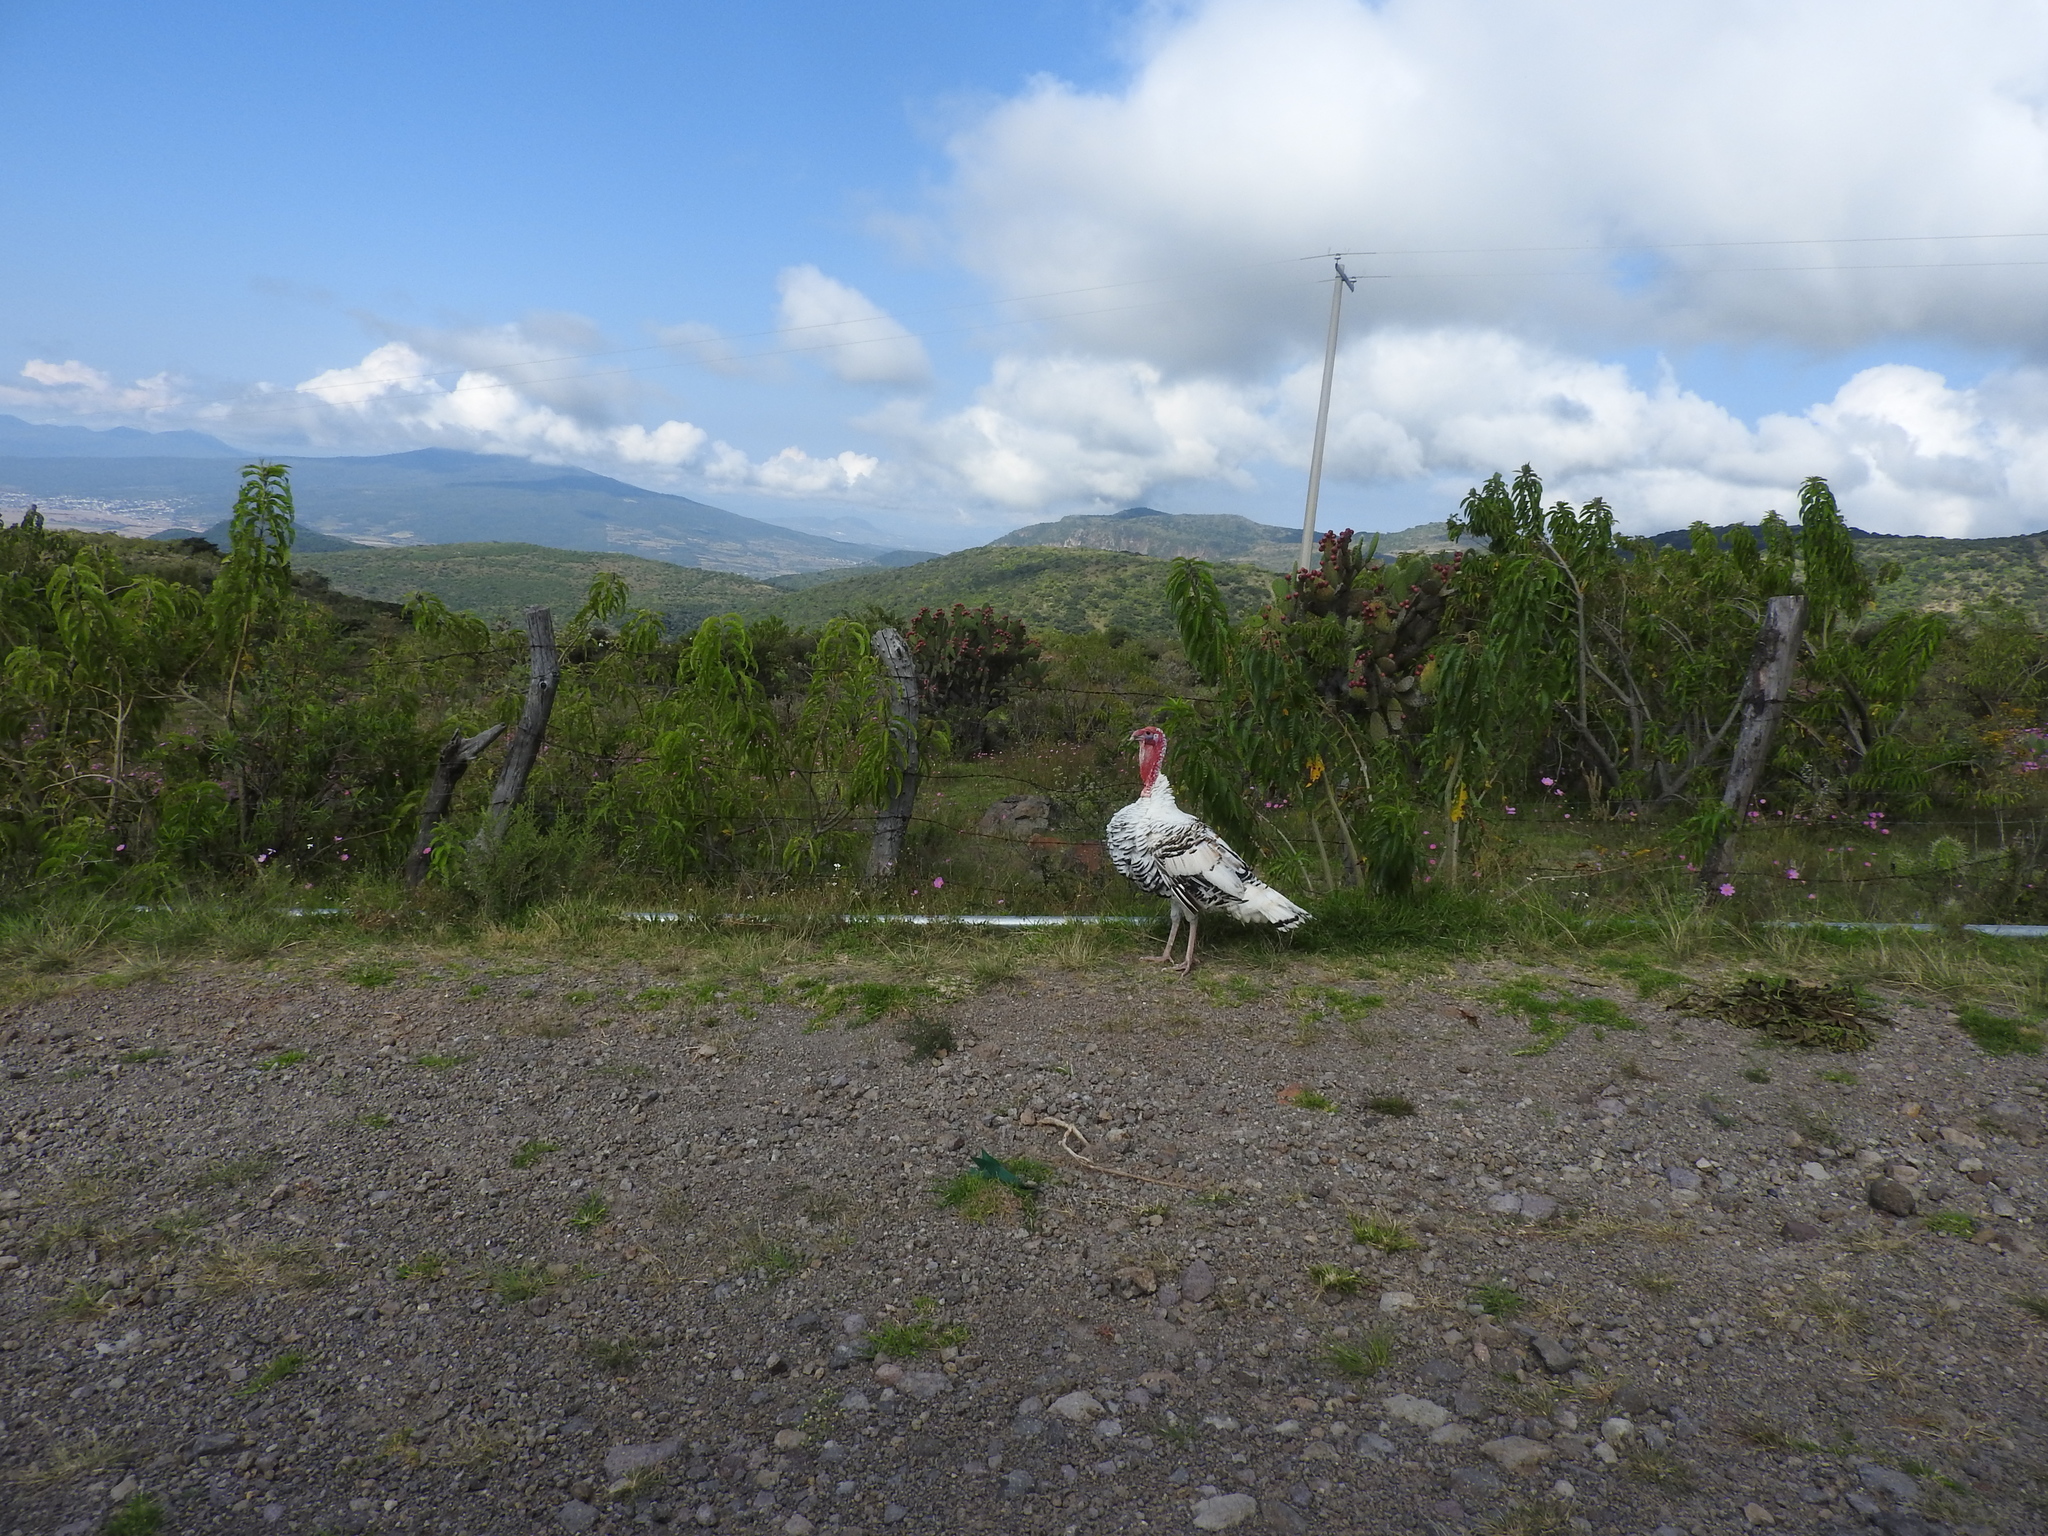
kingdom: Animalia
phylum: Chordata
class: Aves
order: Galliformes
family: Phasianidae
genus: Meleagris
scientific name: Meleagris gallopavo
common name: Wild turkey
